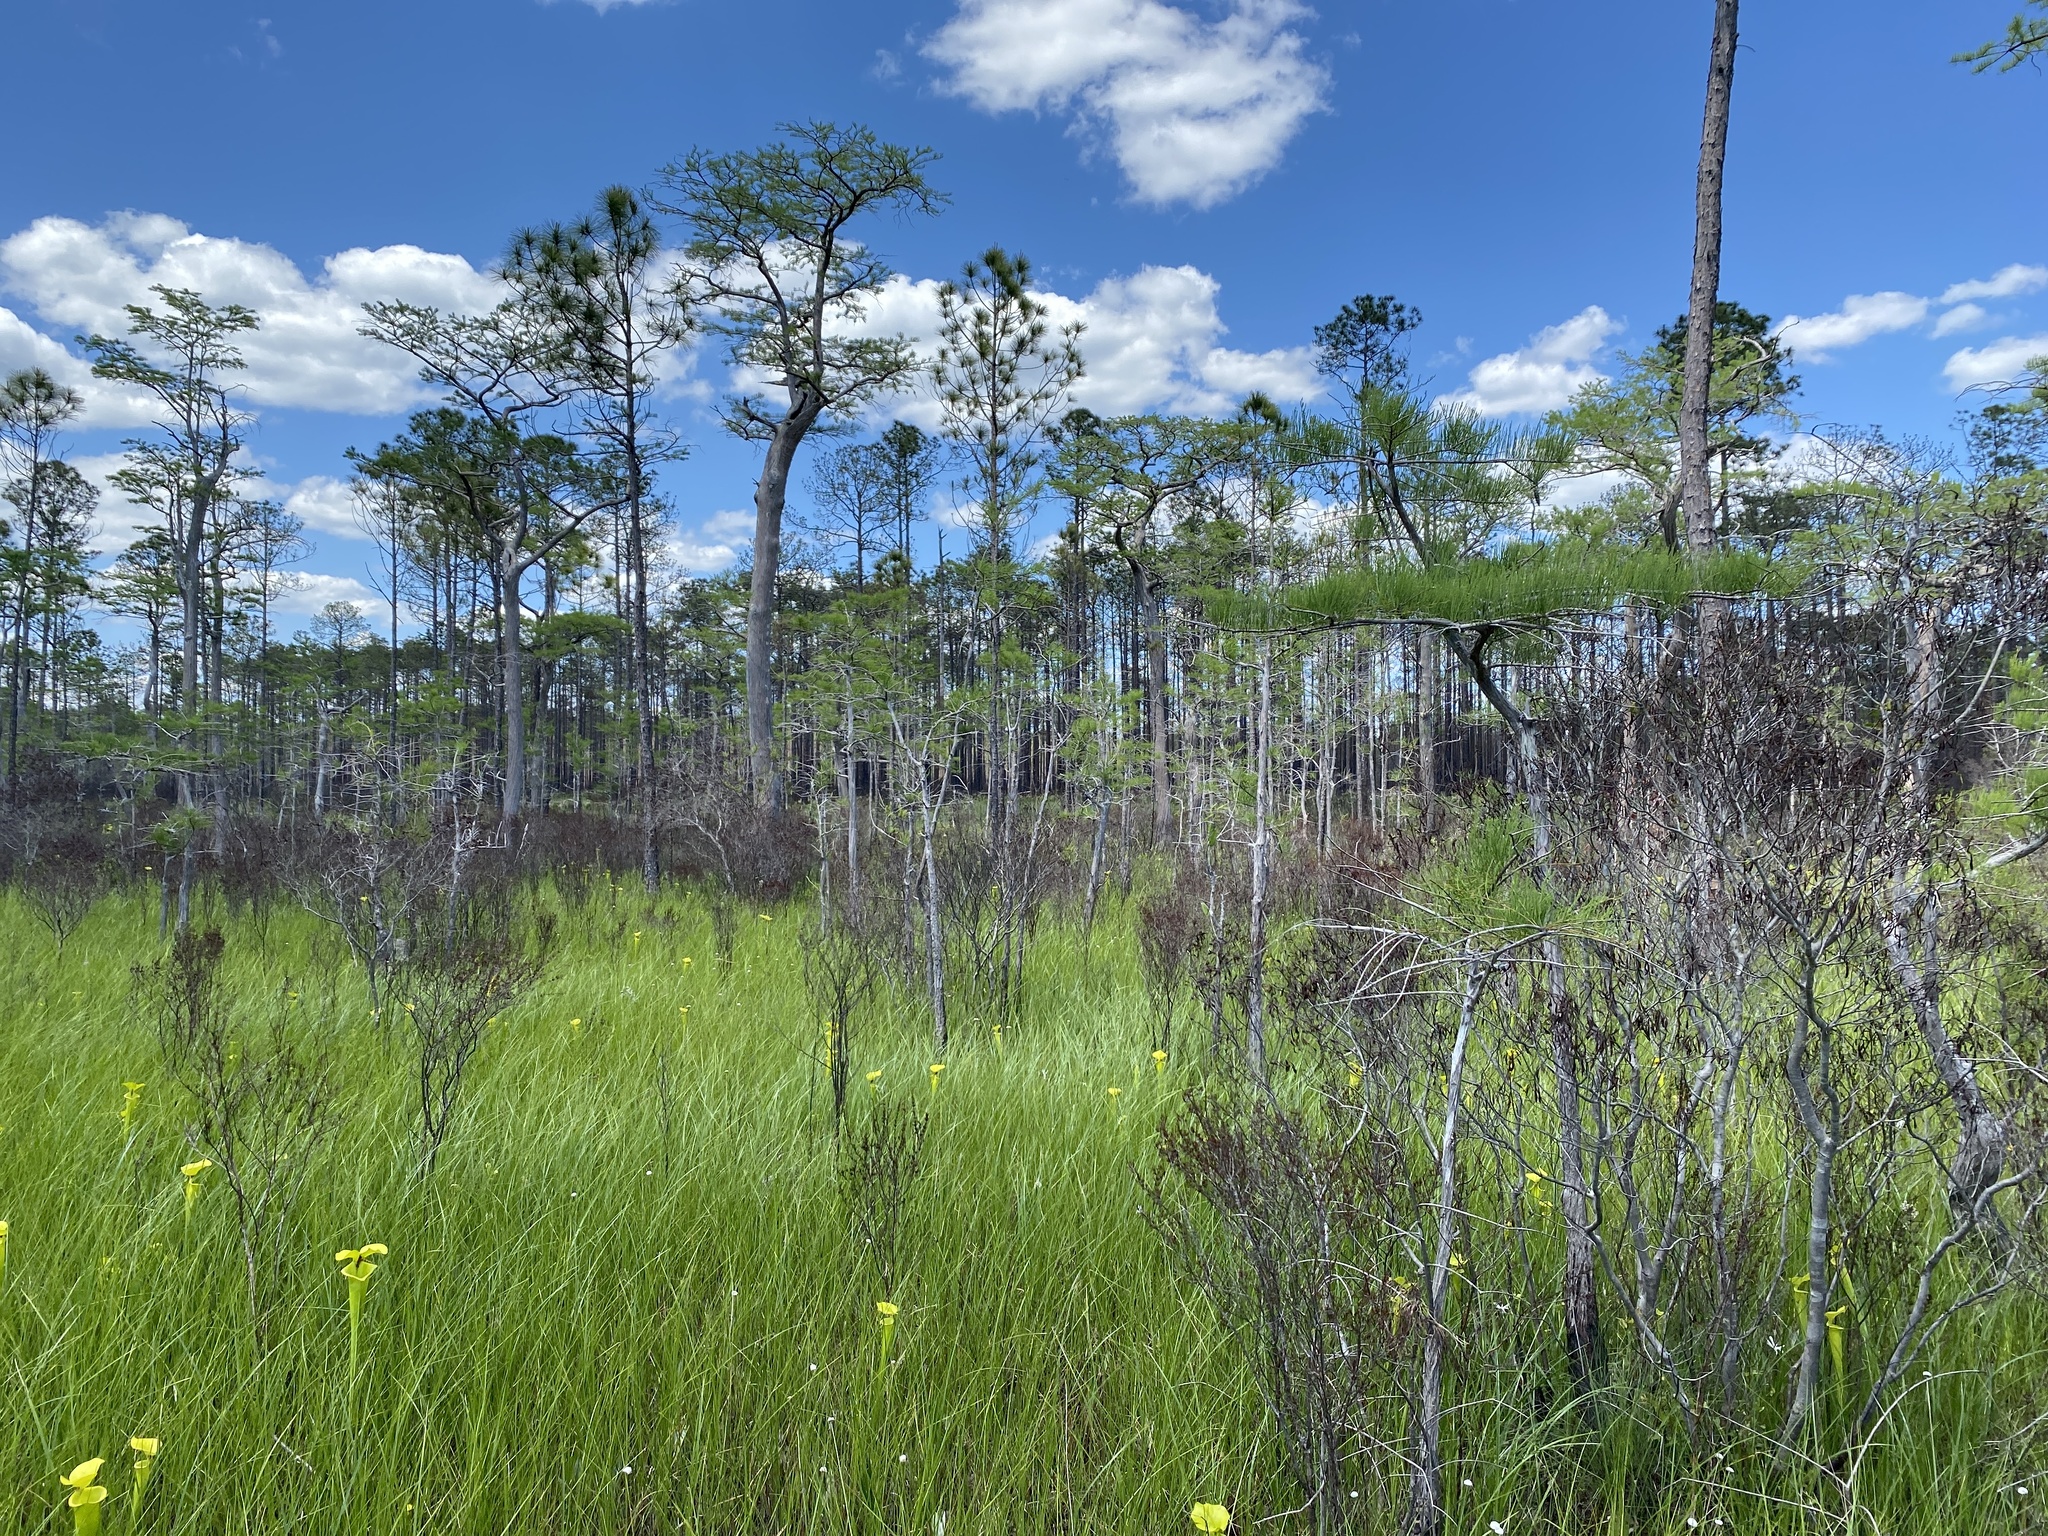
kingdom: Plantae
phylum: Tracheophyta
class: Pinopsida
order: Pinales
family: Cupressaceae
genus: Taxodium
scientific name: Taxodium distichum
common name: Bald cypress
